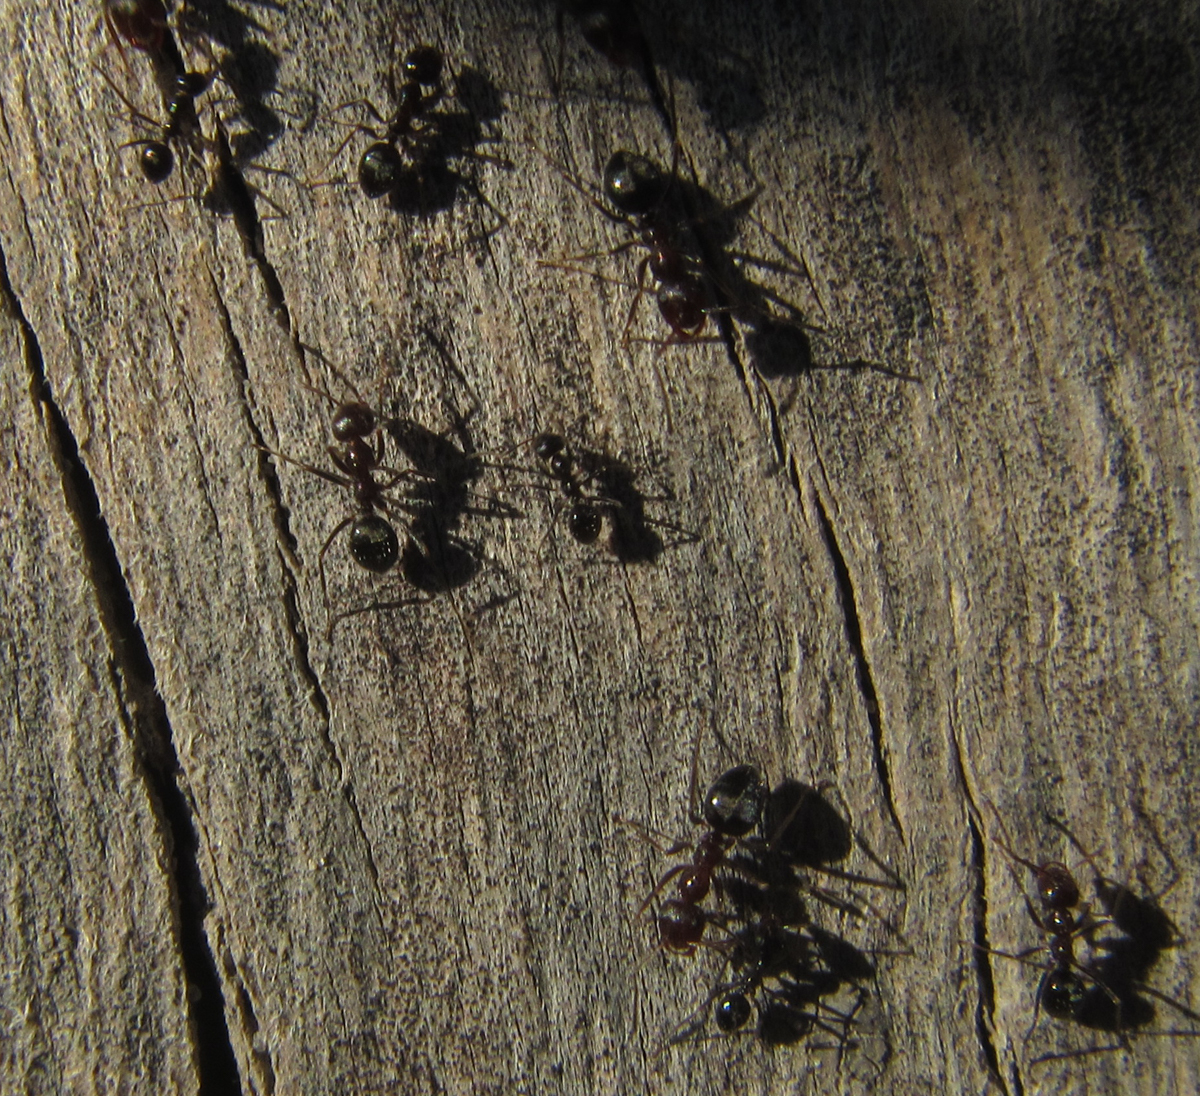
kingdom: Animalia
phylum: Arthropoda
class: Insecta
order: Hymenoptera
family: Formicidae
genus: Anoplolepis
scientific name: Anoplolepis steingroeveri
